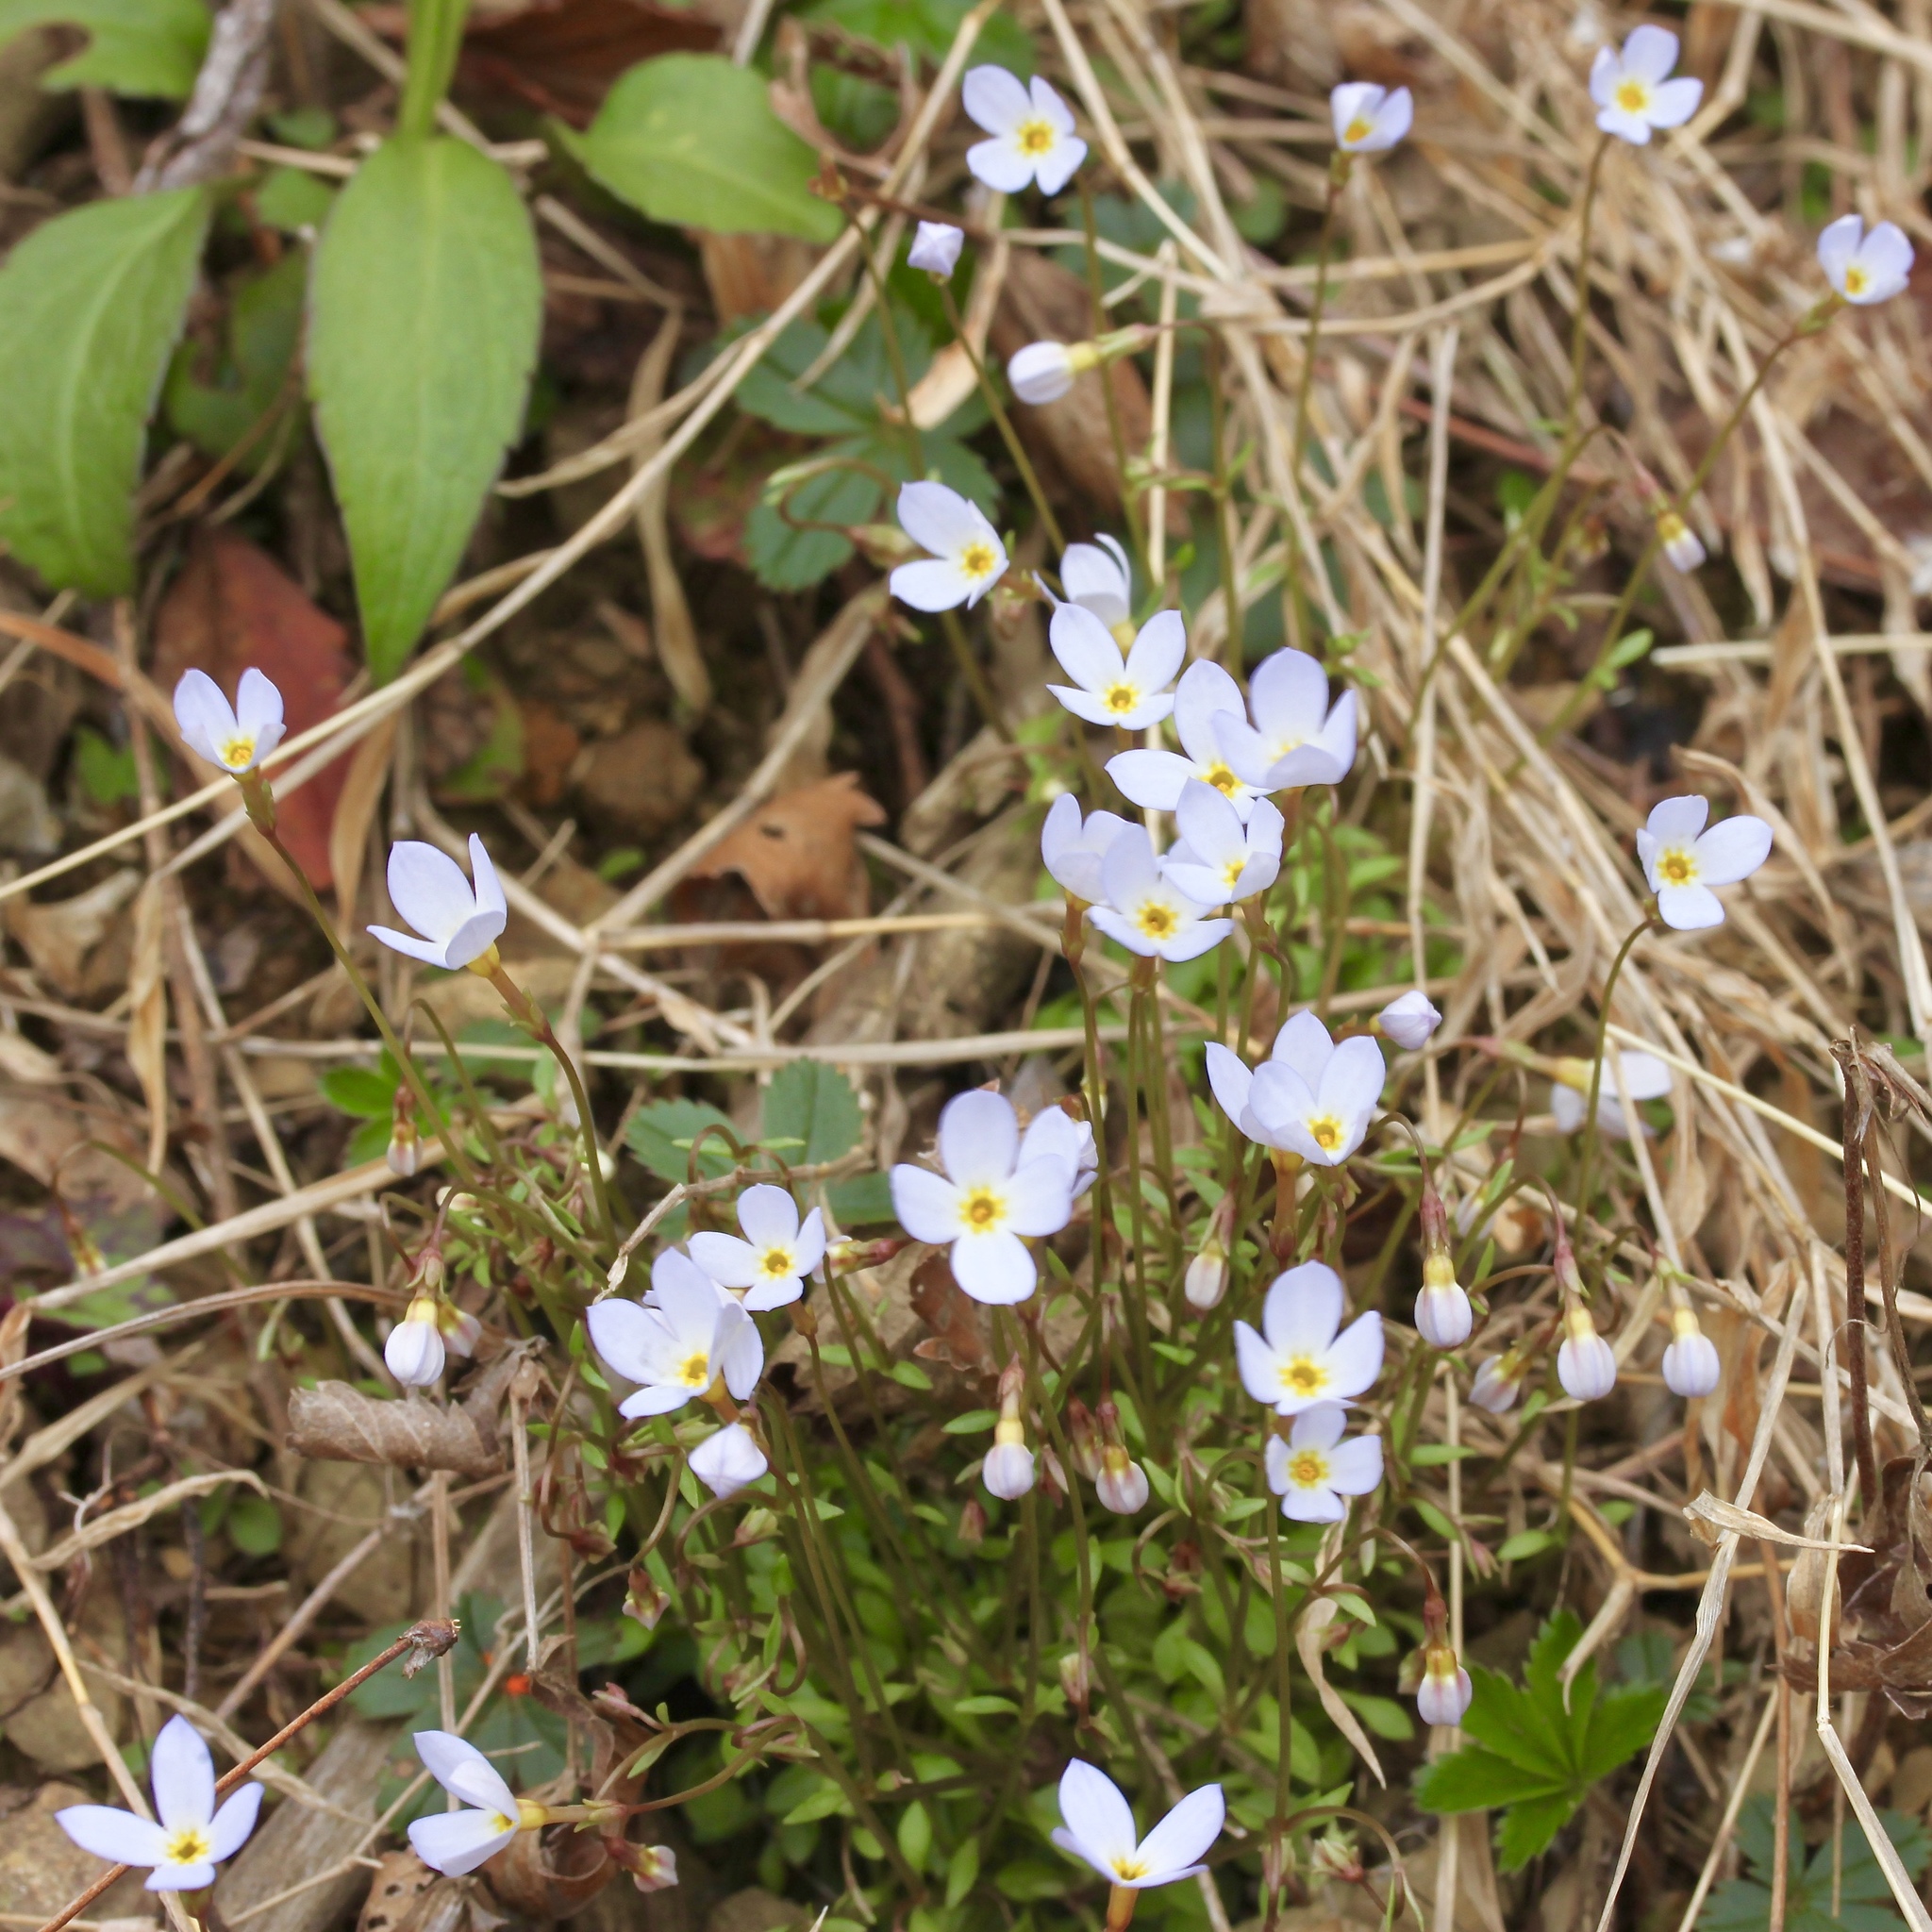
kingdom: Plantae
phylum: Tracheophyta
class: Magnoliopsida
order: Gentianales
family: Rubiaceae
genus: Houstonia
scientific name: Houstonia caerulea
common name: Bluets
